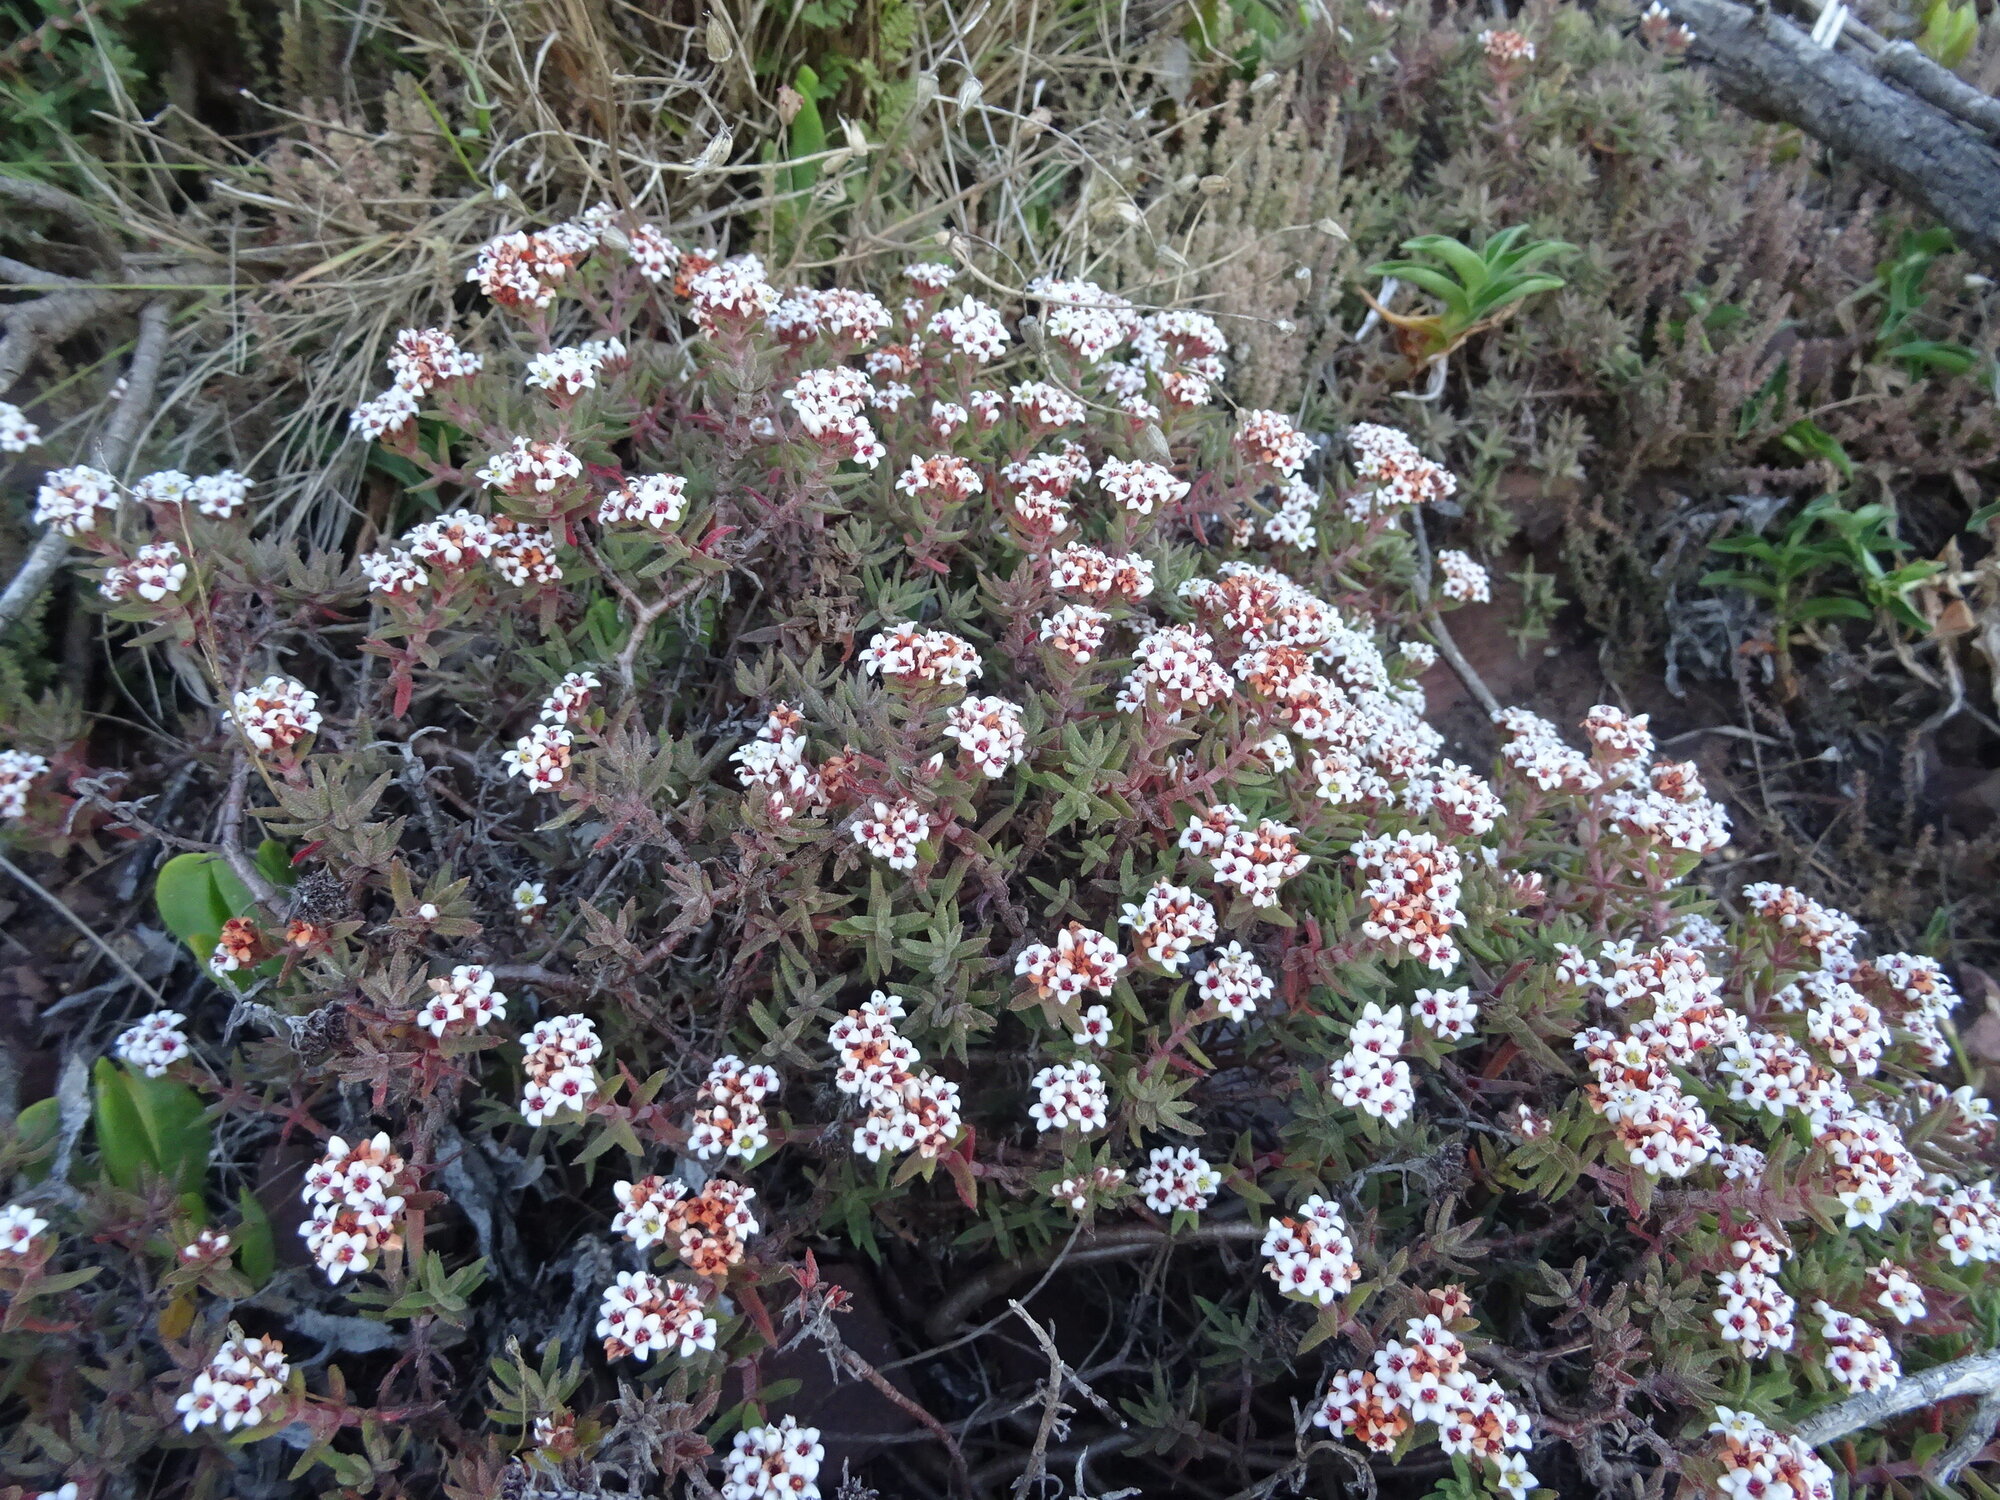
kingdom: Plantae
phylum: Tracheophyta
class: Magnoliopsida
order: Saxifragales
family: Crassulaceae
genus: Crassula
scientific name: Crassula pruinosa
